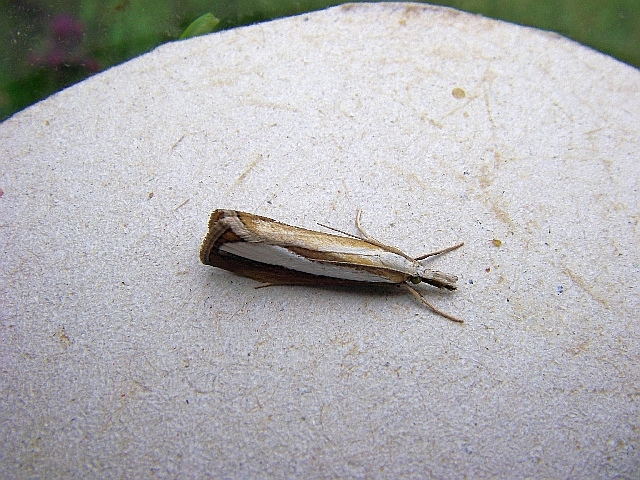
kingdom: Animalia
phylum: Arthropoda
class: Insecta
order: Lepidoptera
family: Crambidae
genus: Catoptria
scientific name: Catoptria margaritellus
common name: Pearl-band grass veneer
